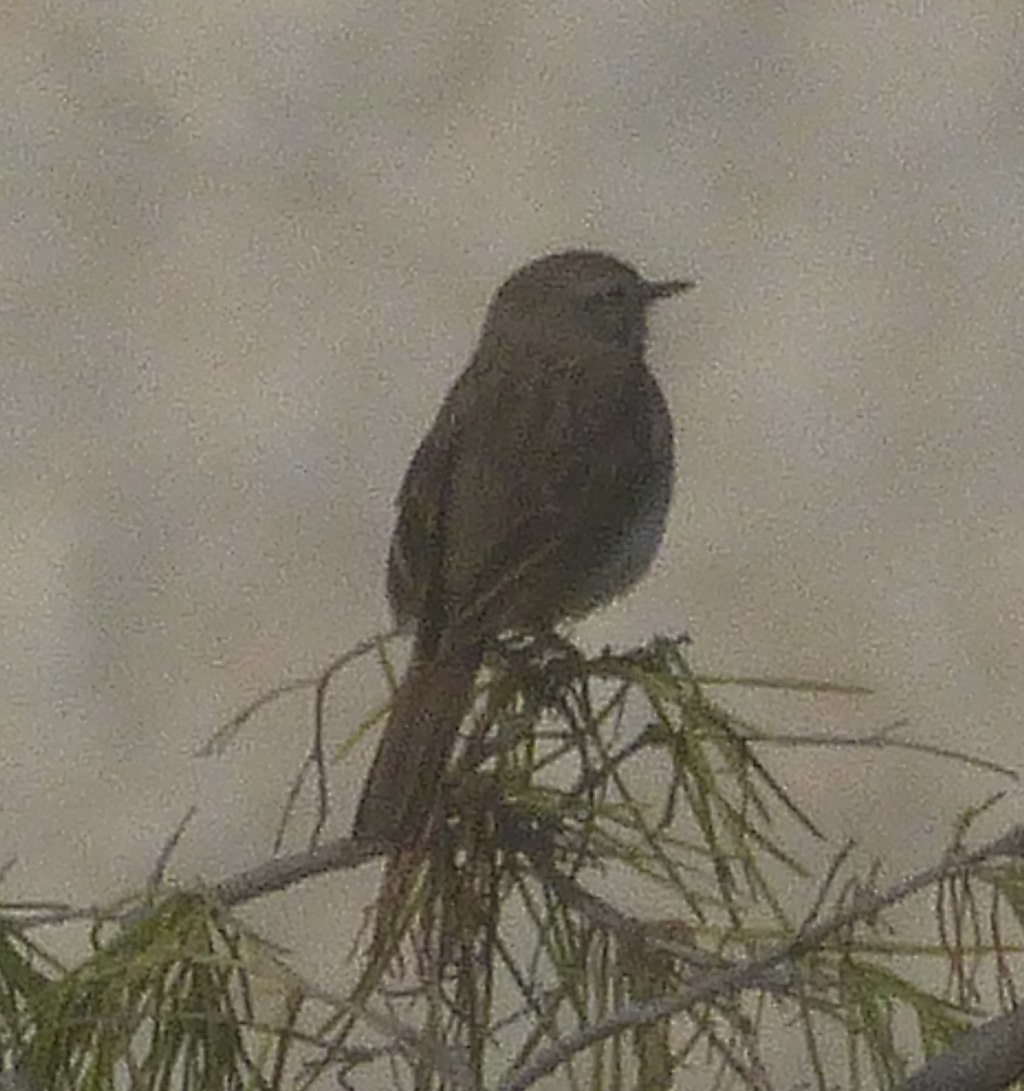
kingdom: Animalia
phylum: Chordata
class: Aves
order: Passeriformes
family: Motacillidae
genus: Anthus
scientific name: Anthus berthelotii
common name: Berthelot's pipit
